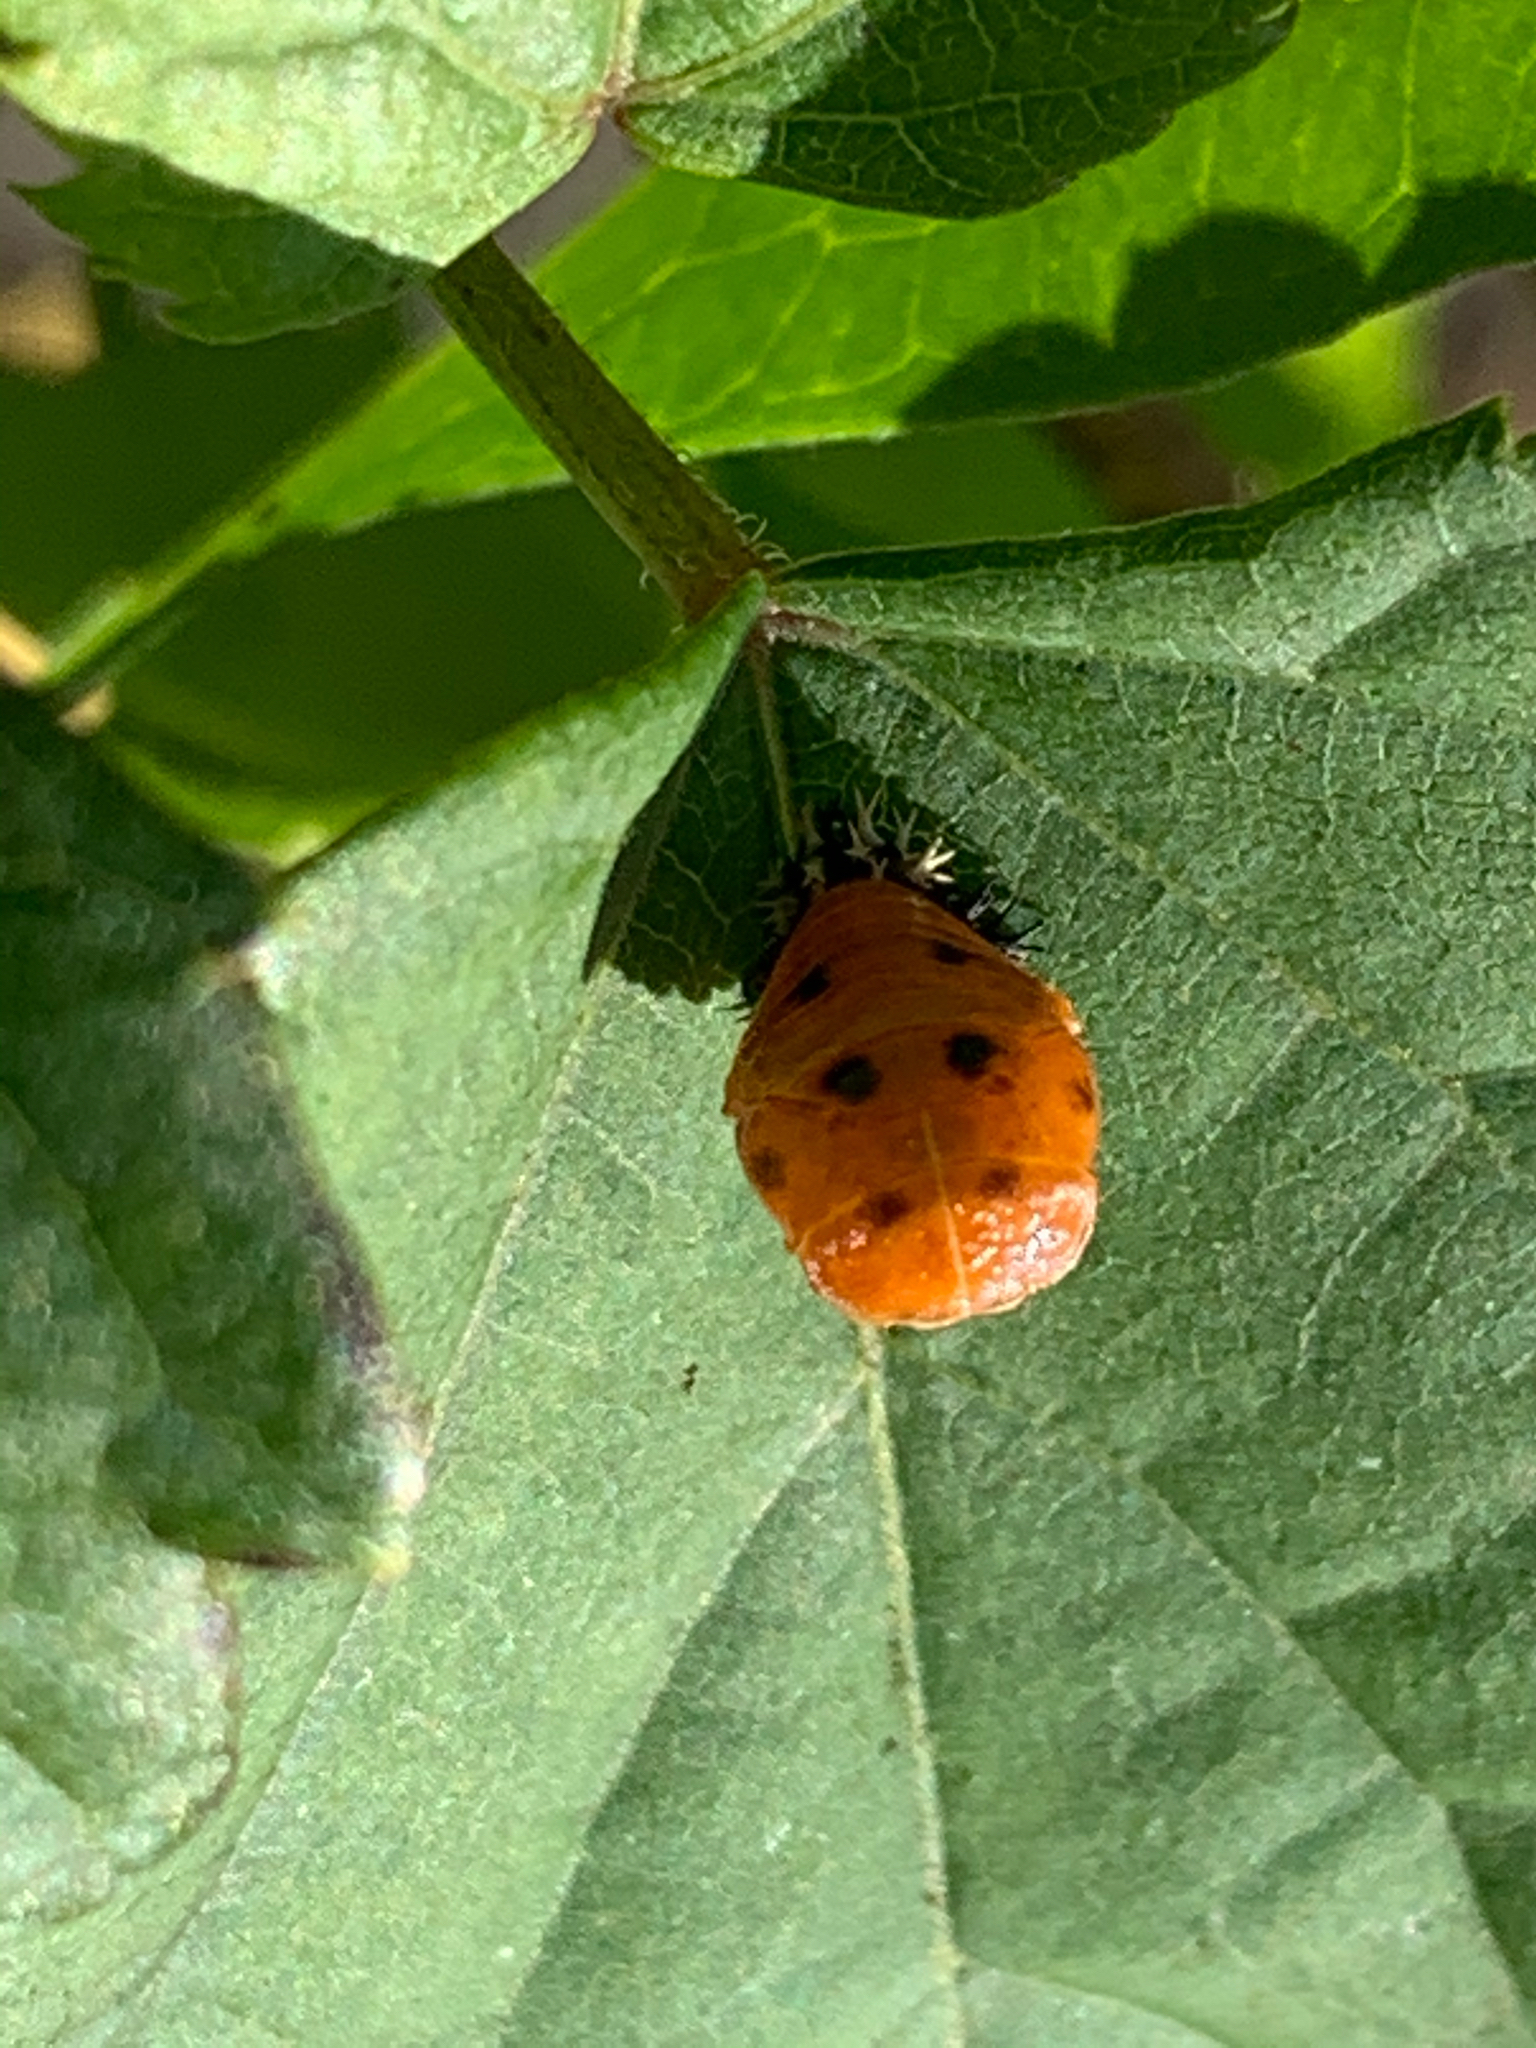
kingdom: Animalia
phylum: Arthropoda
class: Insecta
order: Coleoptera
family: Coccinellidae
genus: Harmonia
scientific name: Harmonia axyridis
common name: Harlequin ladybird
